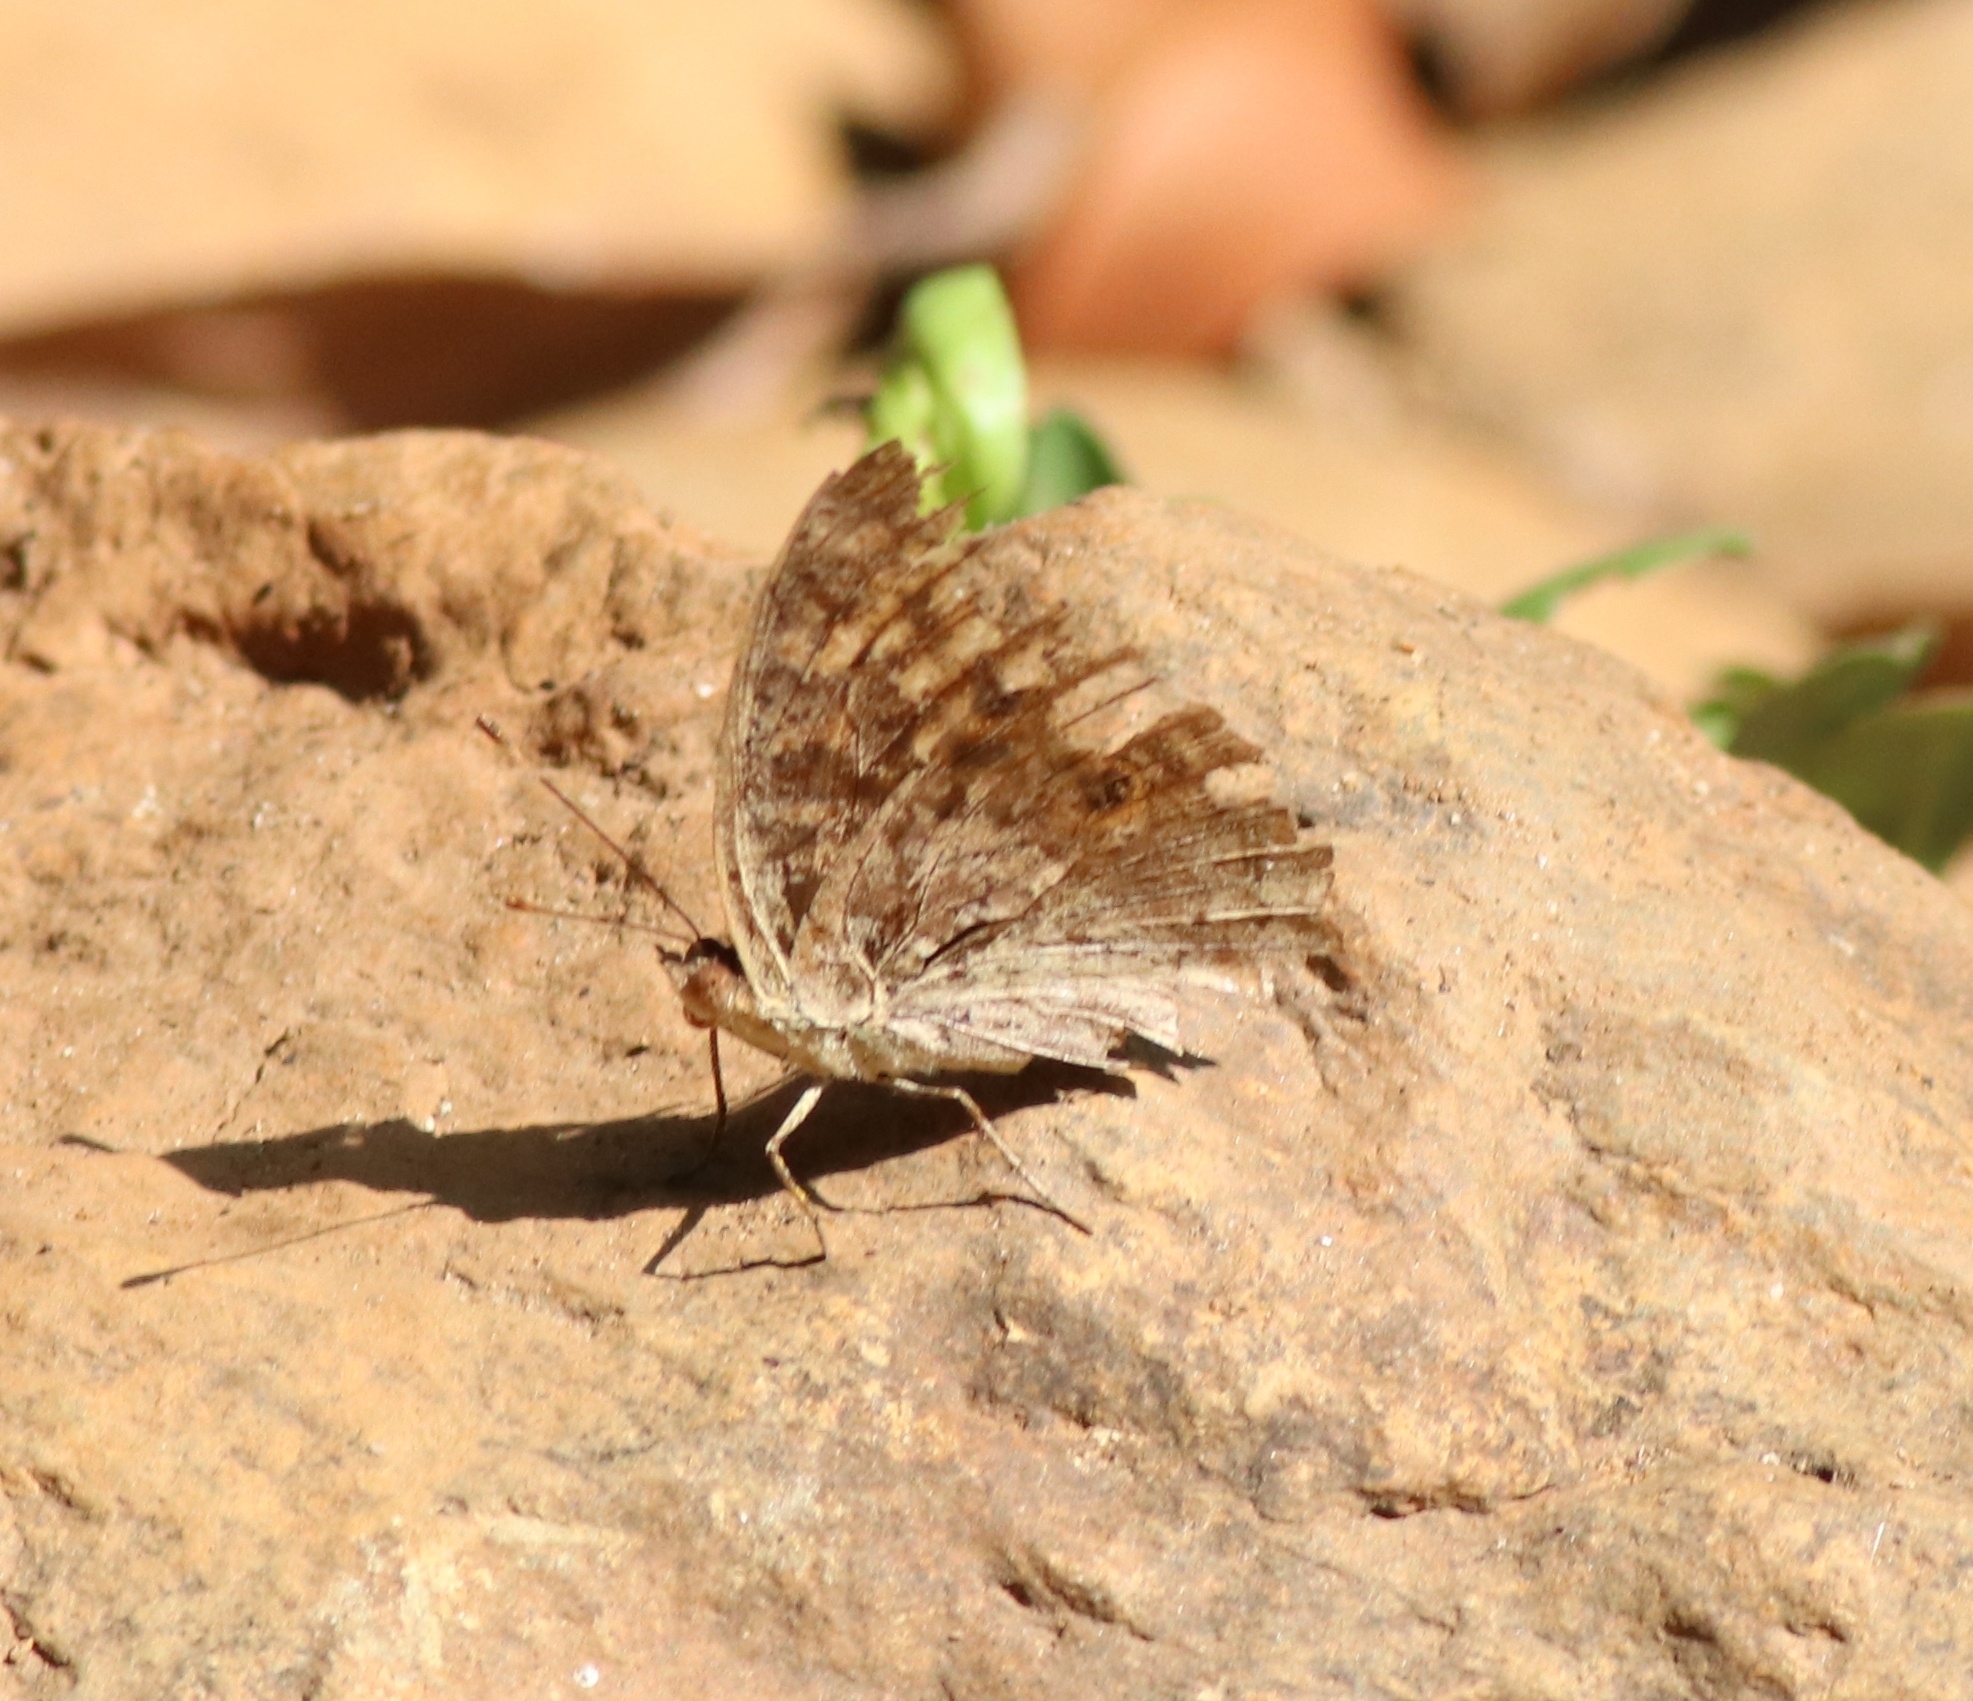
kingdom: Animalia
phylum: Arthropoda
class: Insecta
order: Lepidoptera
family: Nymphalidae
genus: Junonia
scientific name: Junonia lemonias
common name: Lemon pansy
